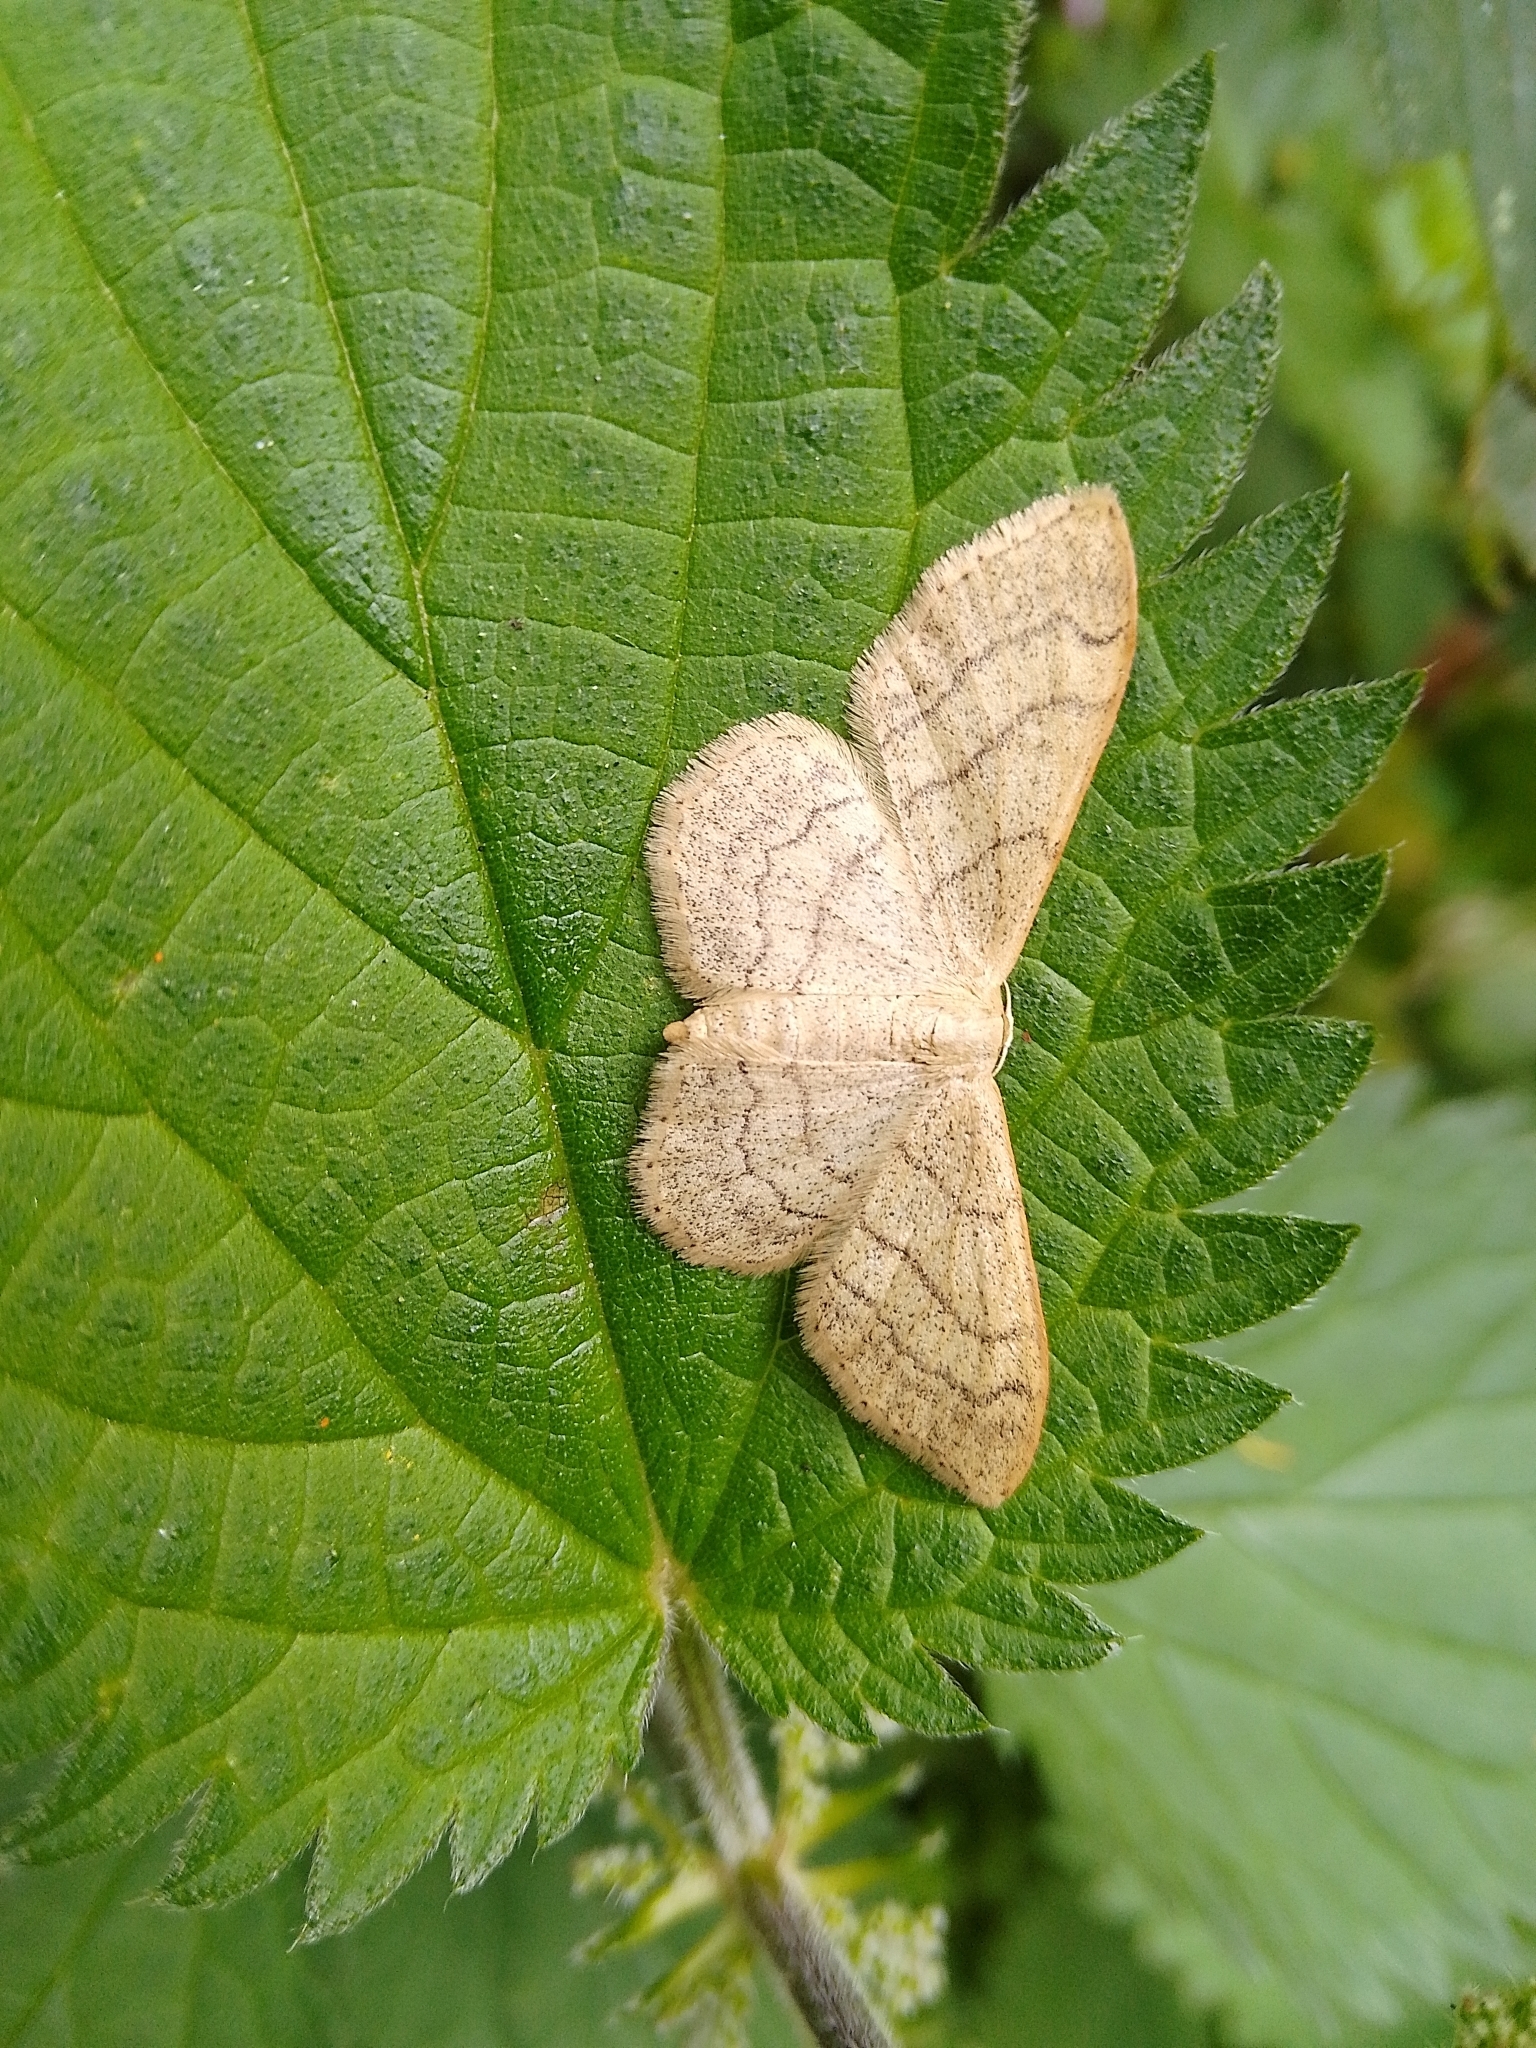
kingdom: Animalia
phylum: Arthropoda
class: Insecta
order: Lepidoptera
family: Geometridae
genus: Idaea
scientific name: Idaea aversata
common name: Riband wave
